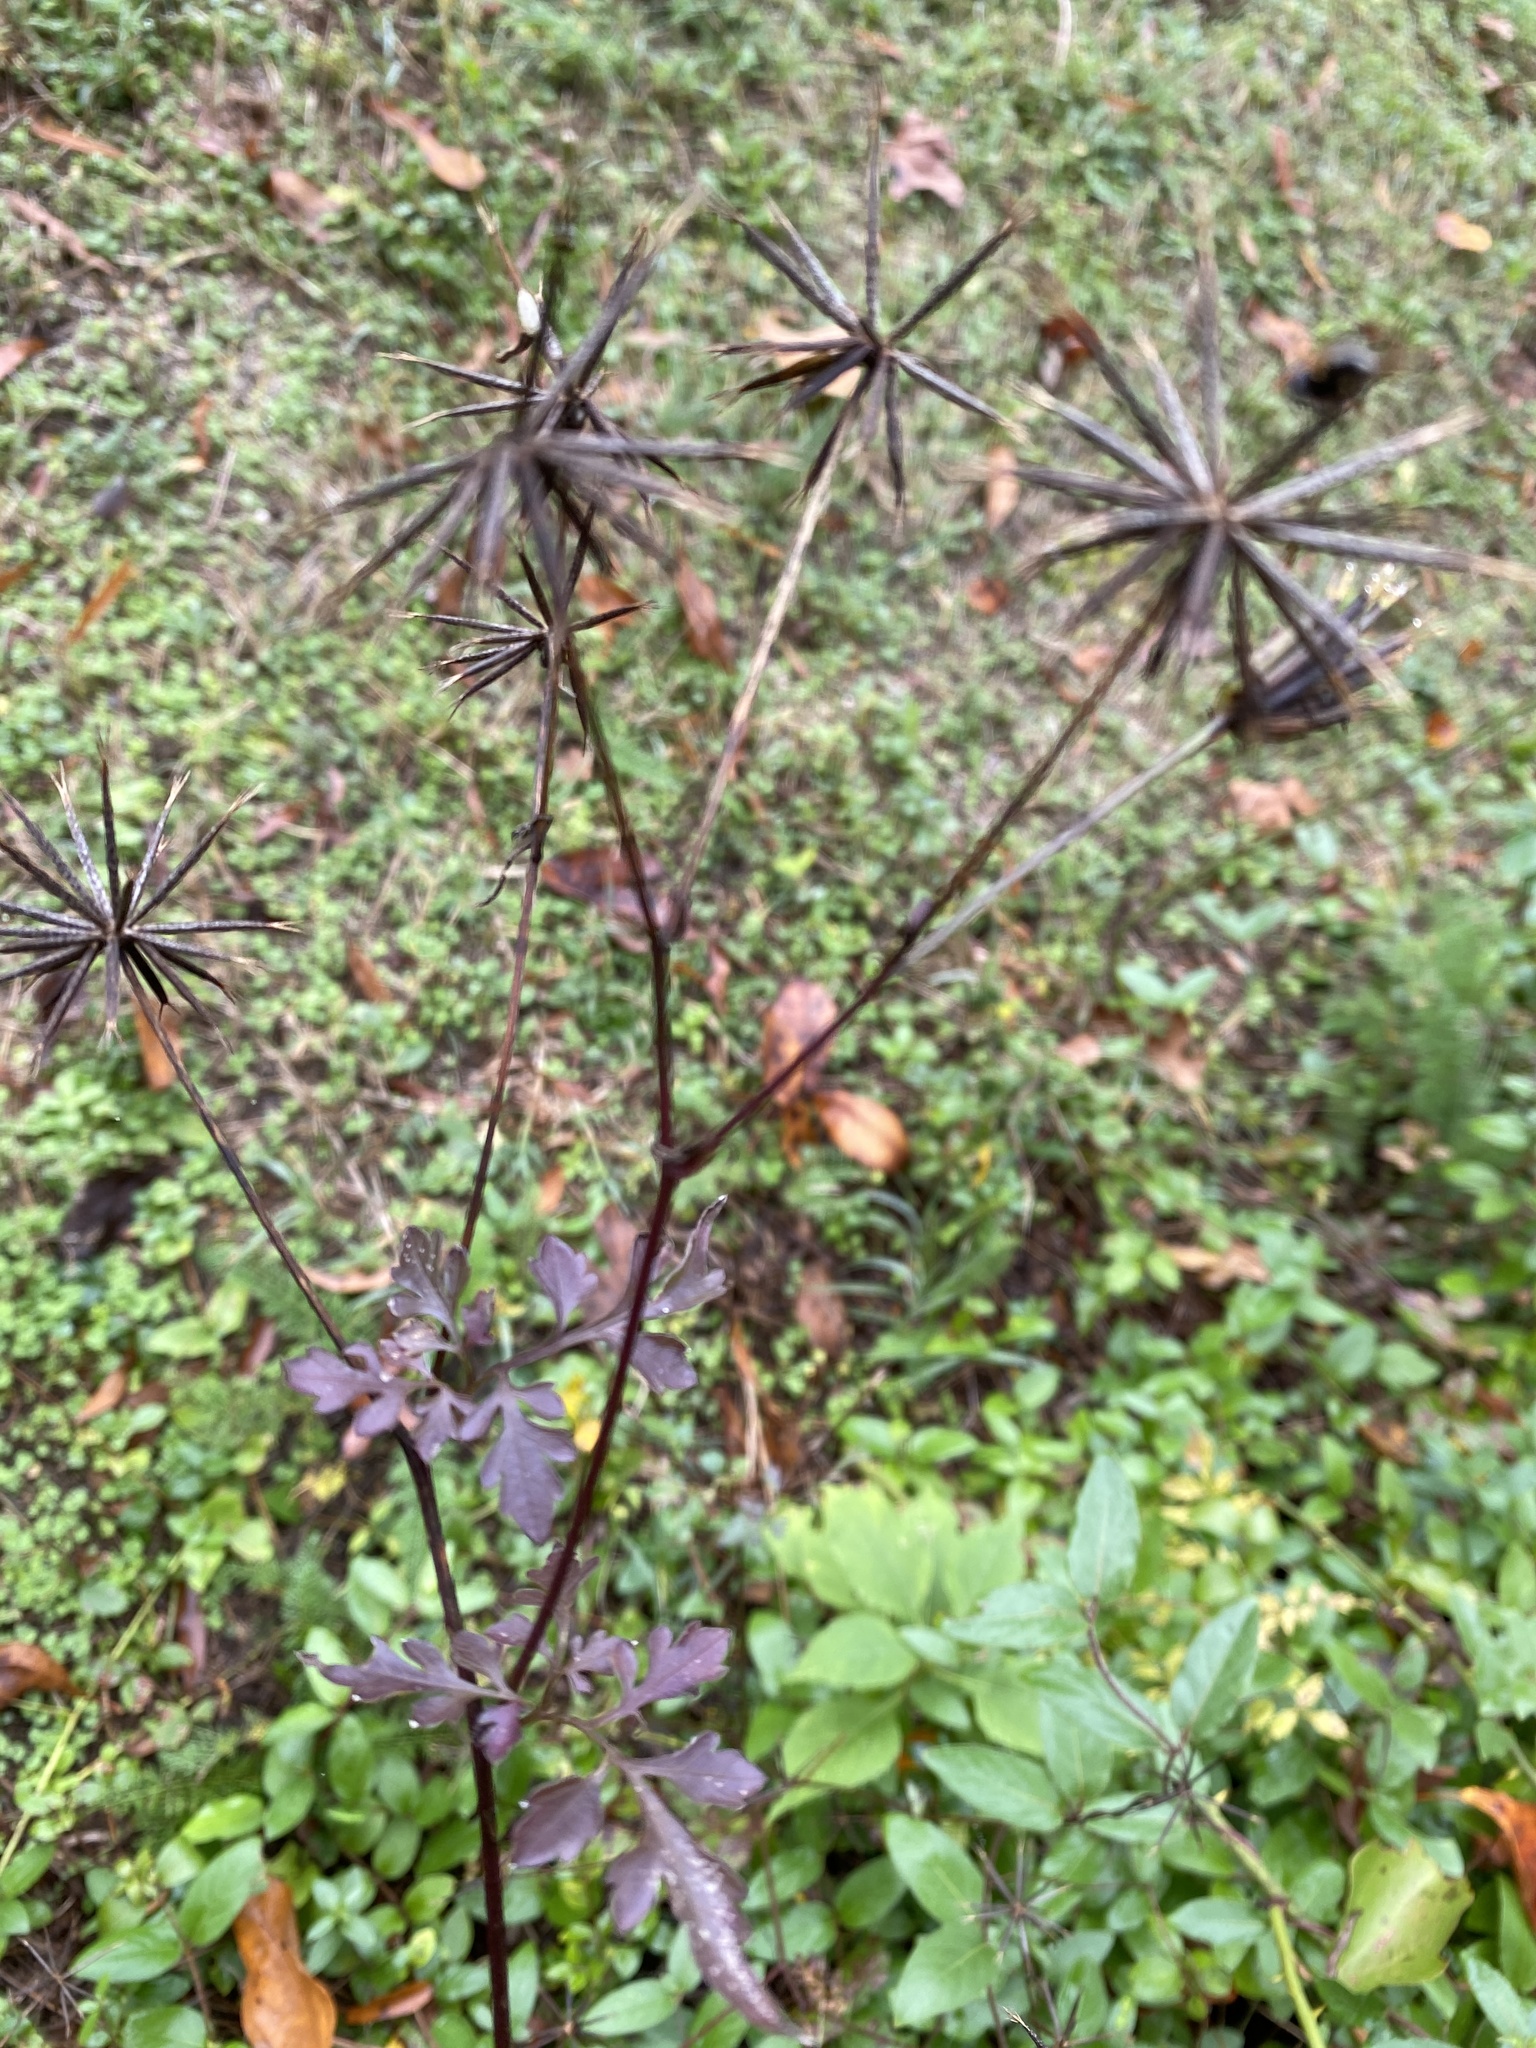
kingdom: Plantae
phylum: Tracheophyta
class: Magnoliopsida
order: Asterales
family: Asteraceae
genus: Bidens
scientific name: Bidens bipinnata
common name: Spanish-needles
